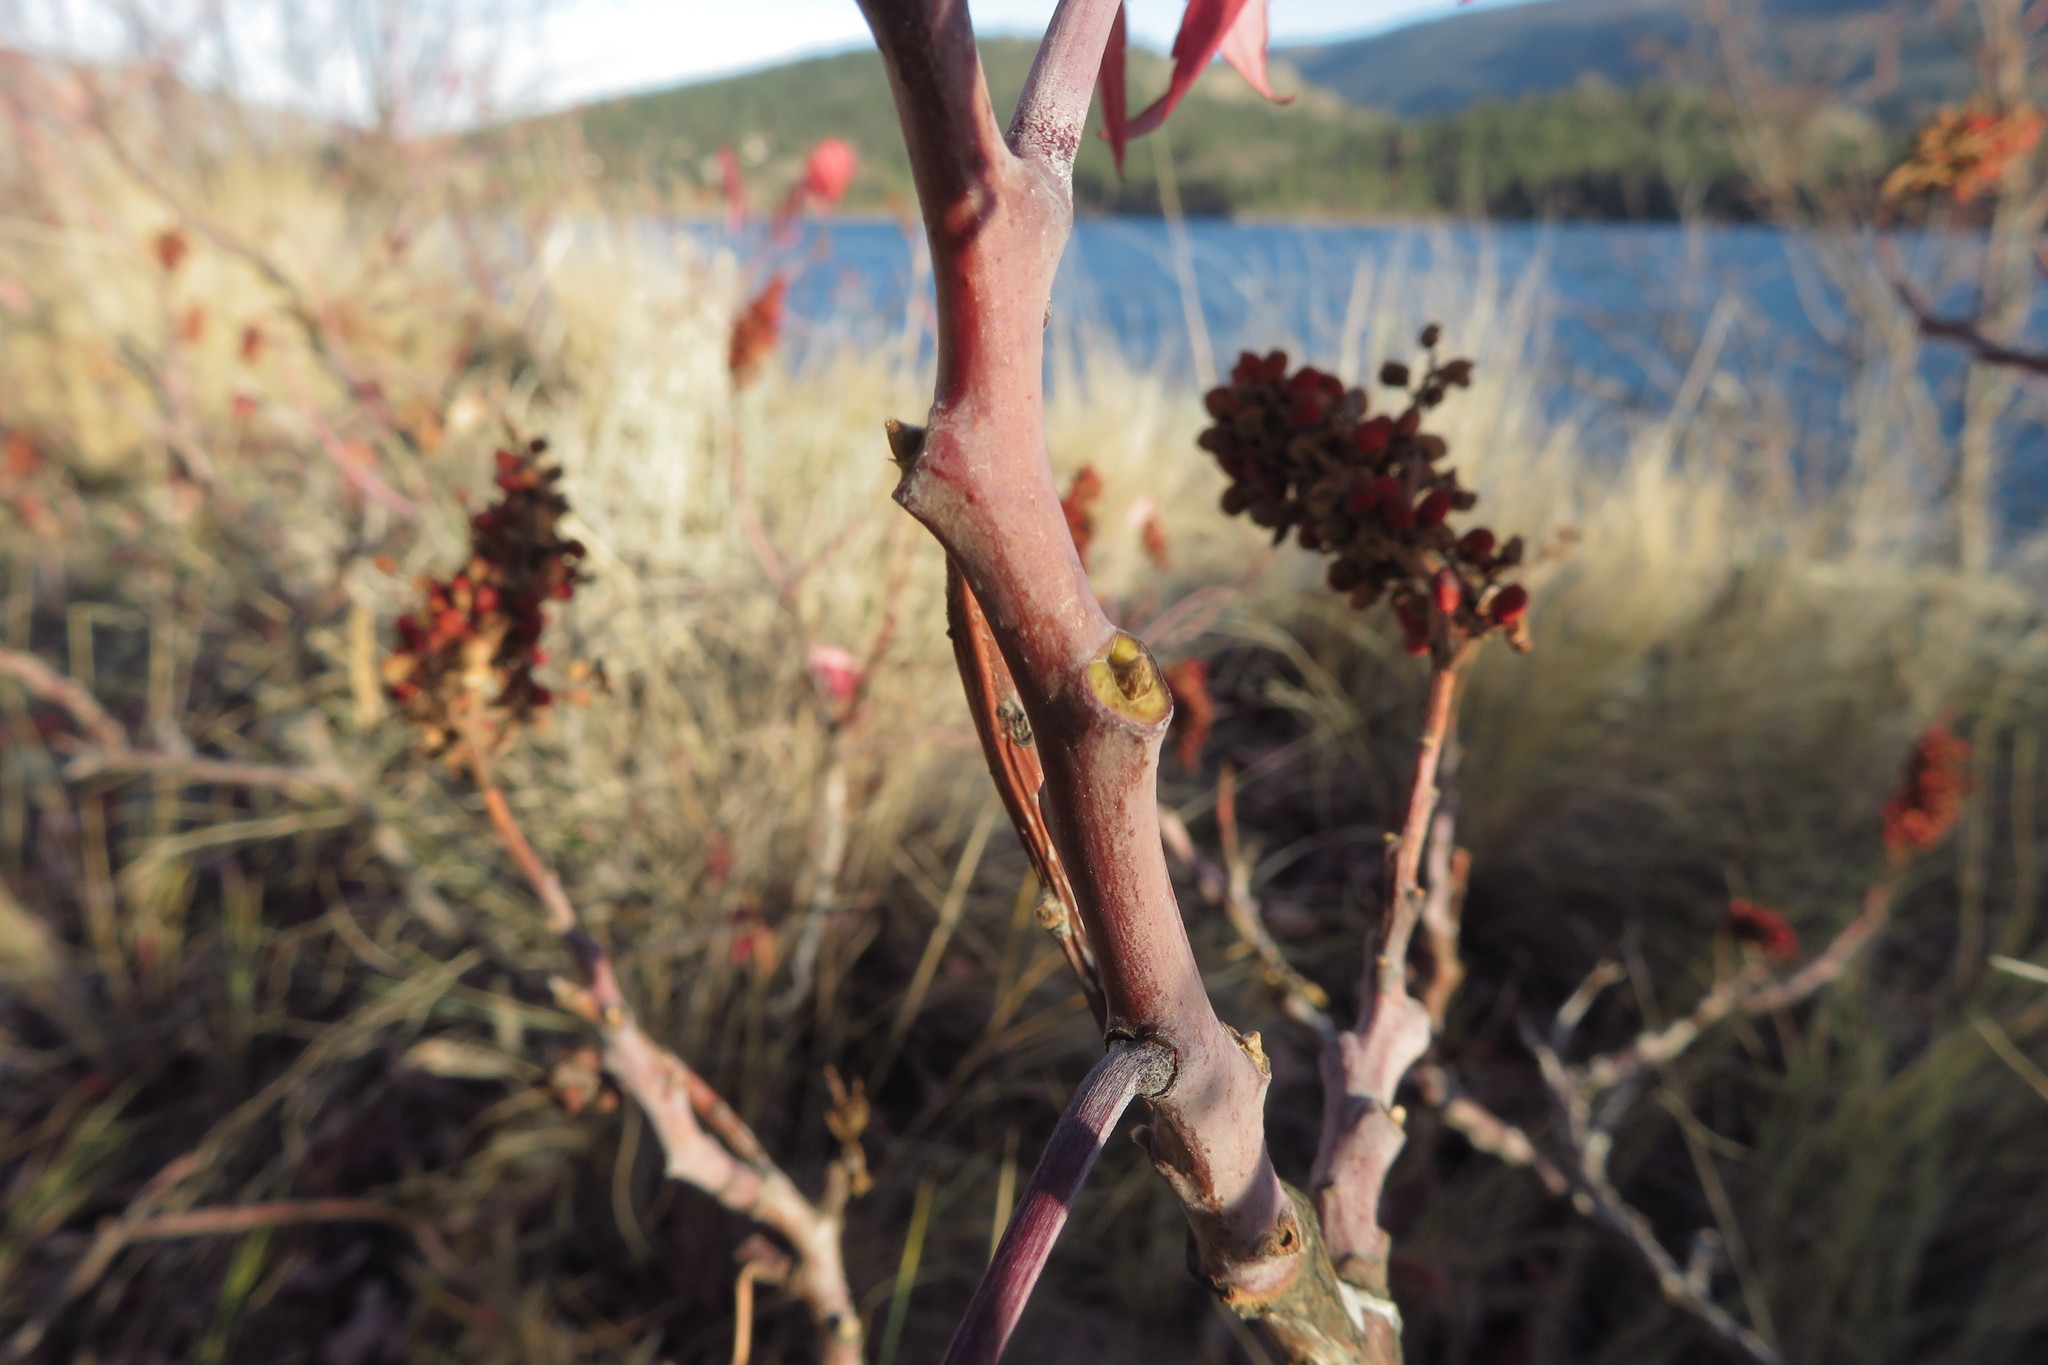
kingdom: Plantae
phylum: Tracheophyta
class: Magnoliopsida
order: Sapindales
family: Anacardiaceae
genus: Rhus
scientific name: Rhus glabra
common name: Scarlet sumac
